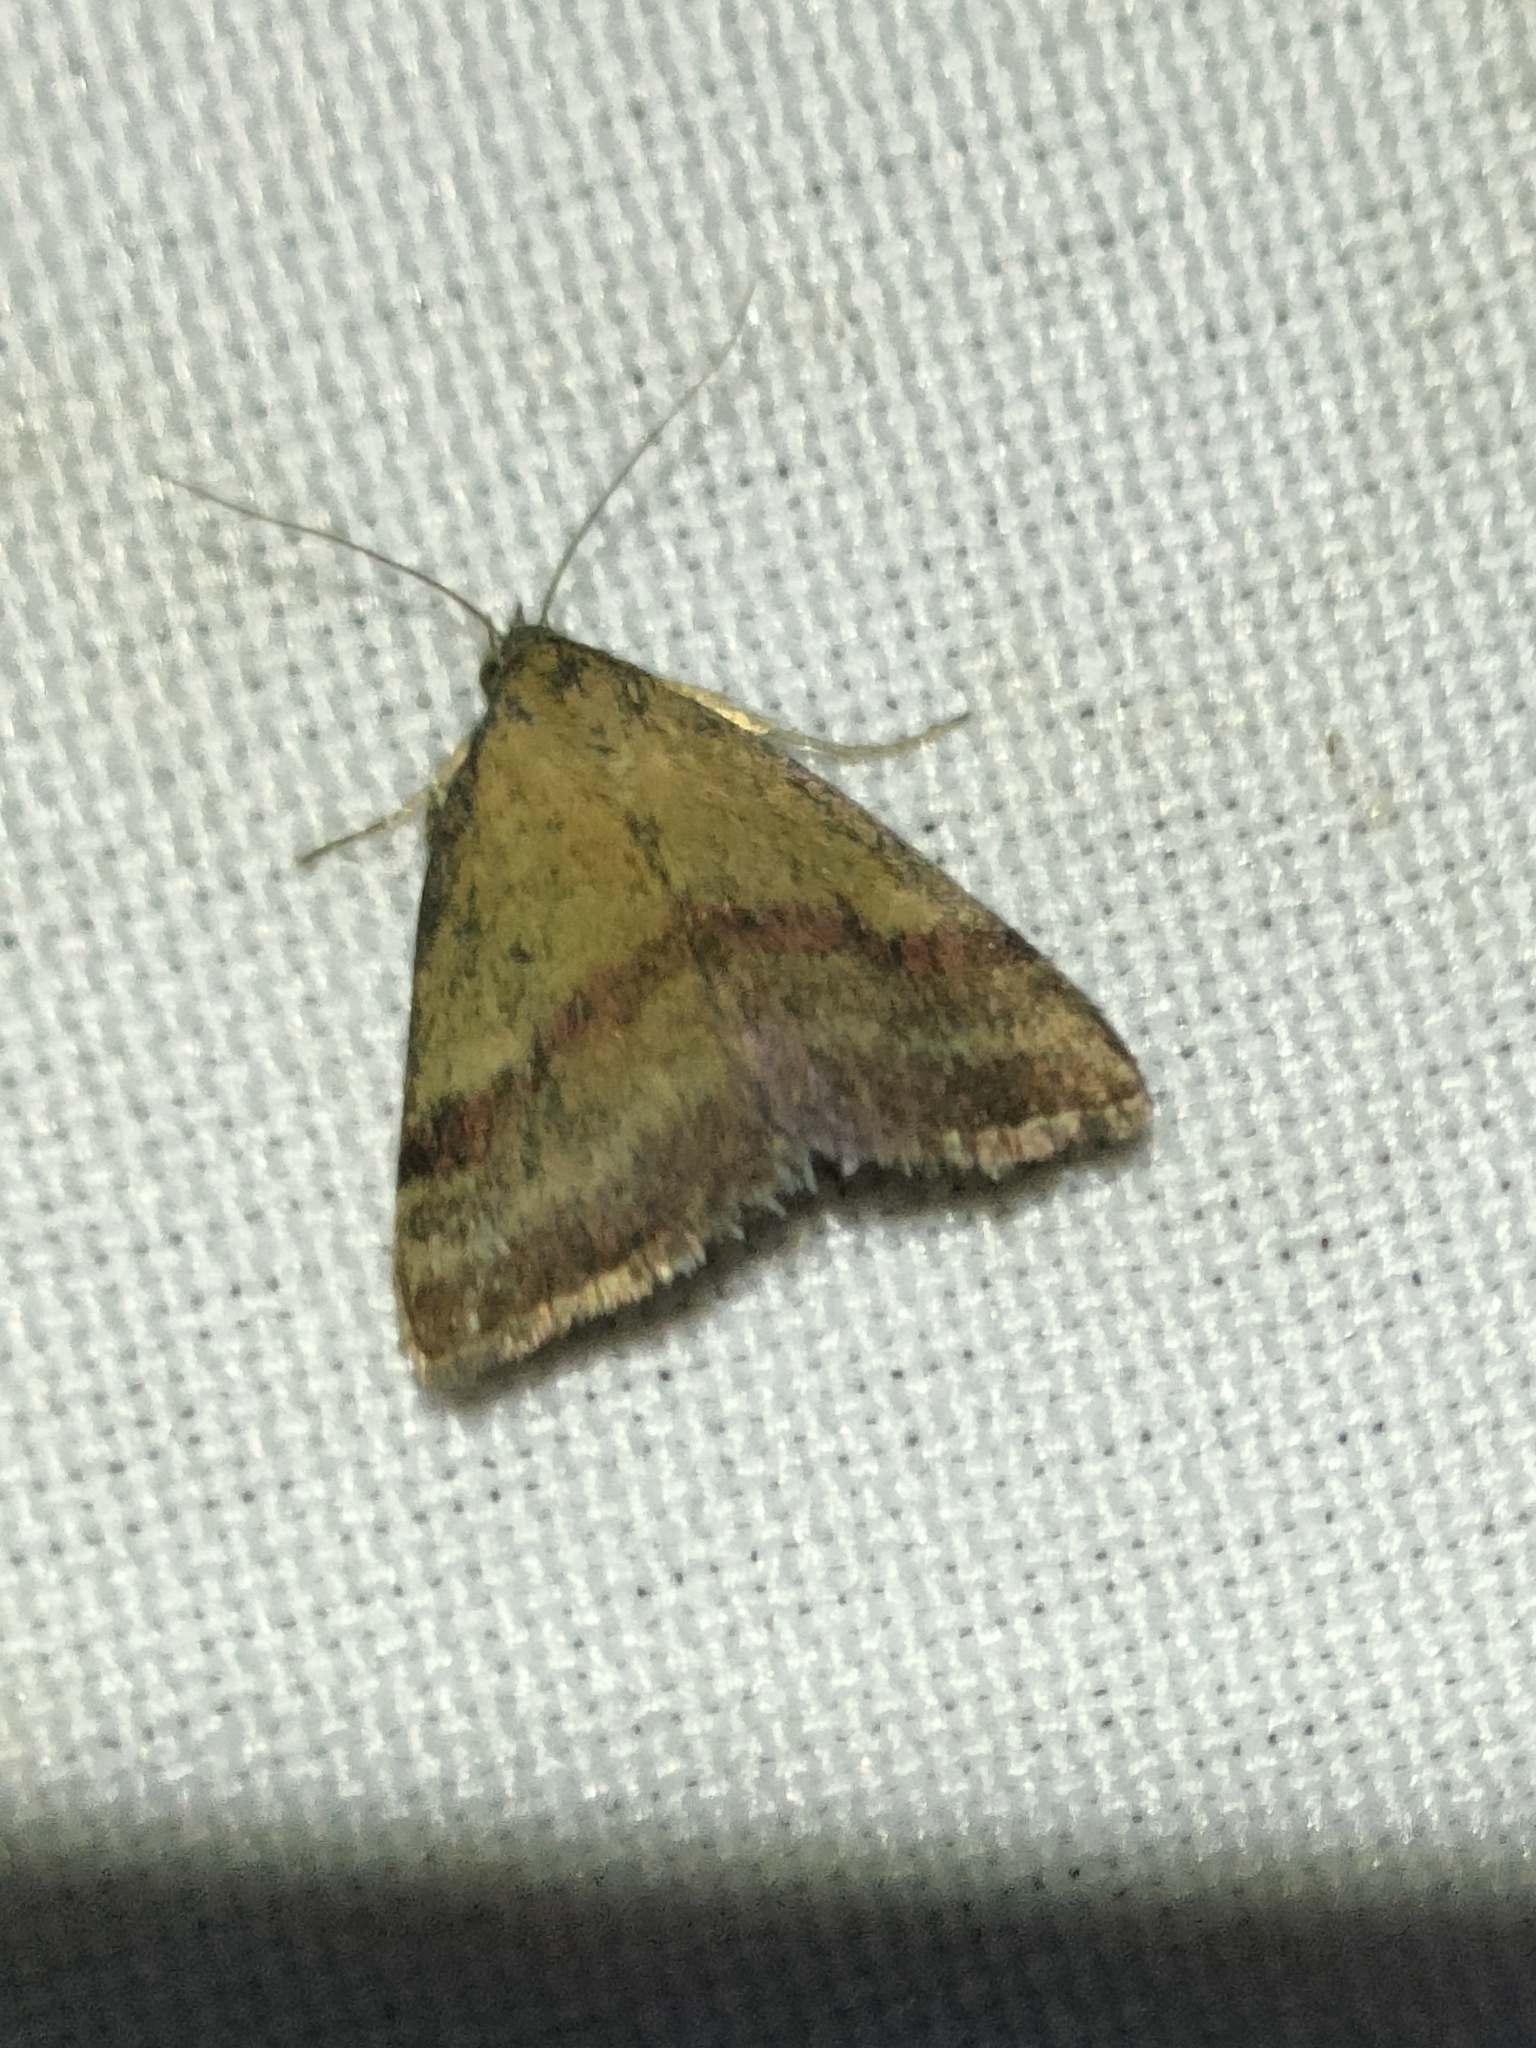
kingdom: Animalia
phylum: Arthropoda
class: Insecta
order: Lepidoptera
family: Erebidae
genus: Phytometra
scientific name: Phytometra viridaria
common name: Small purple-barred
